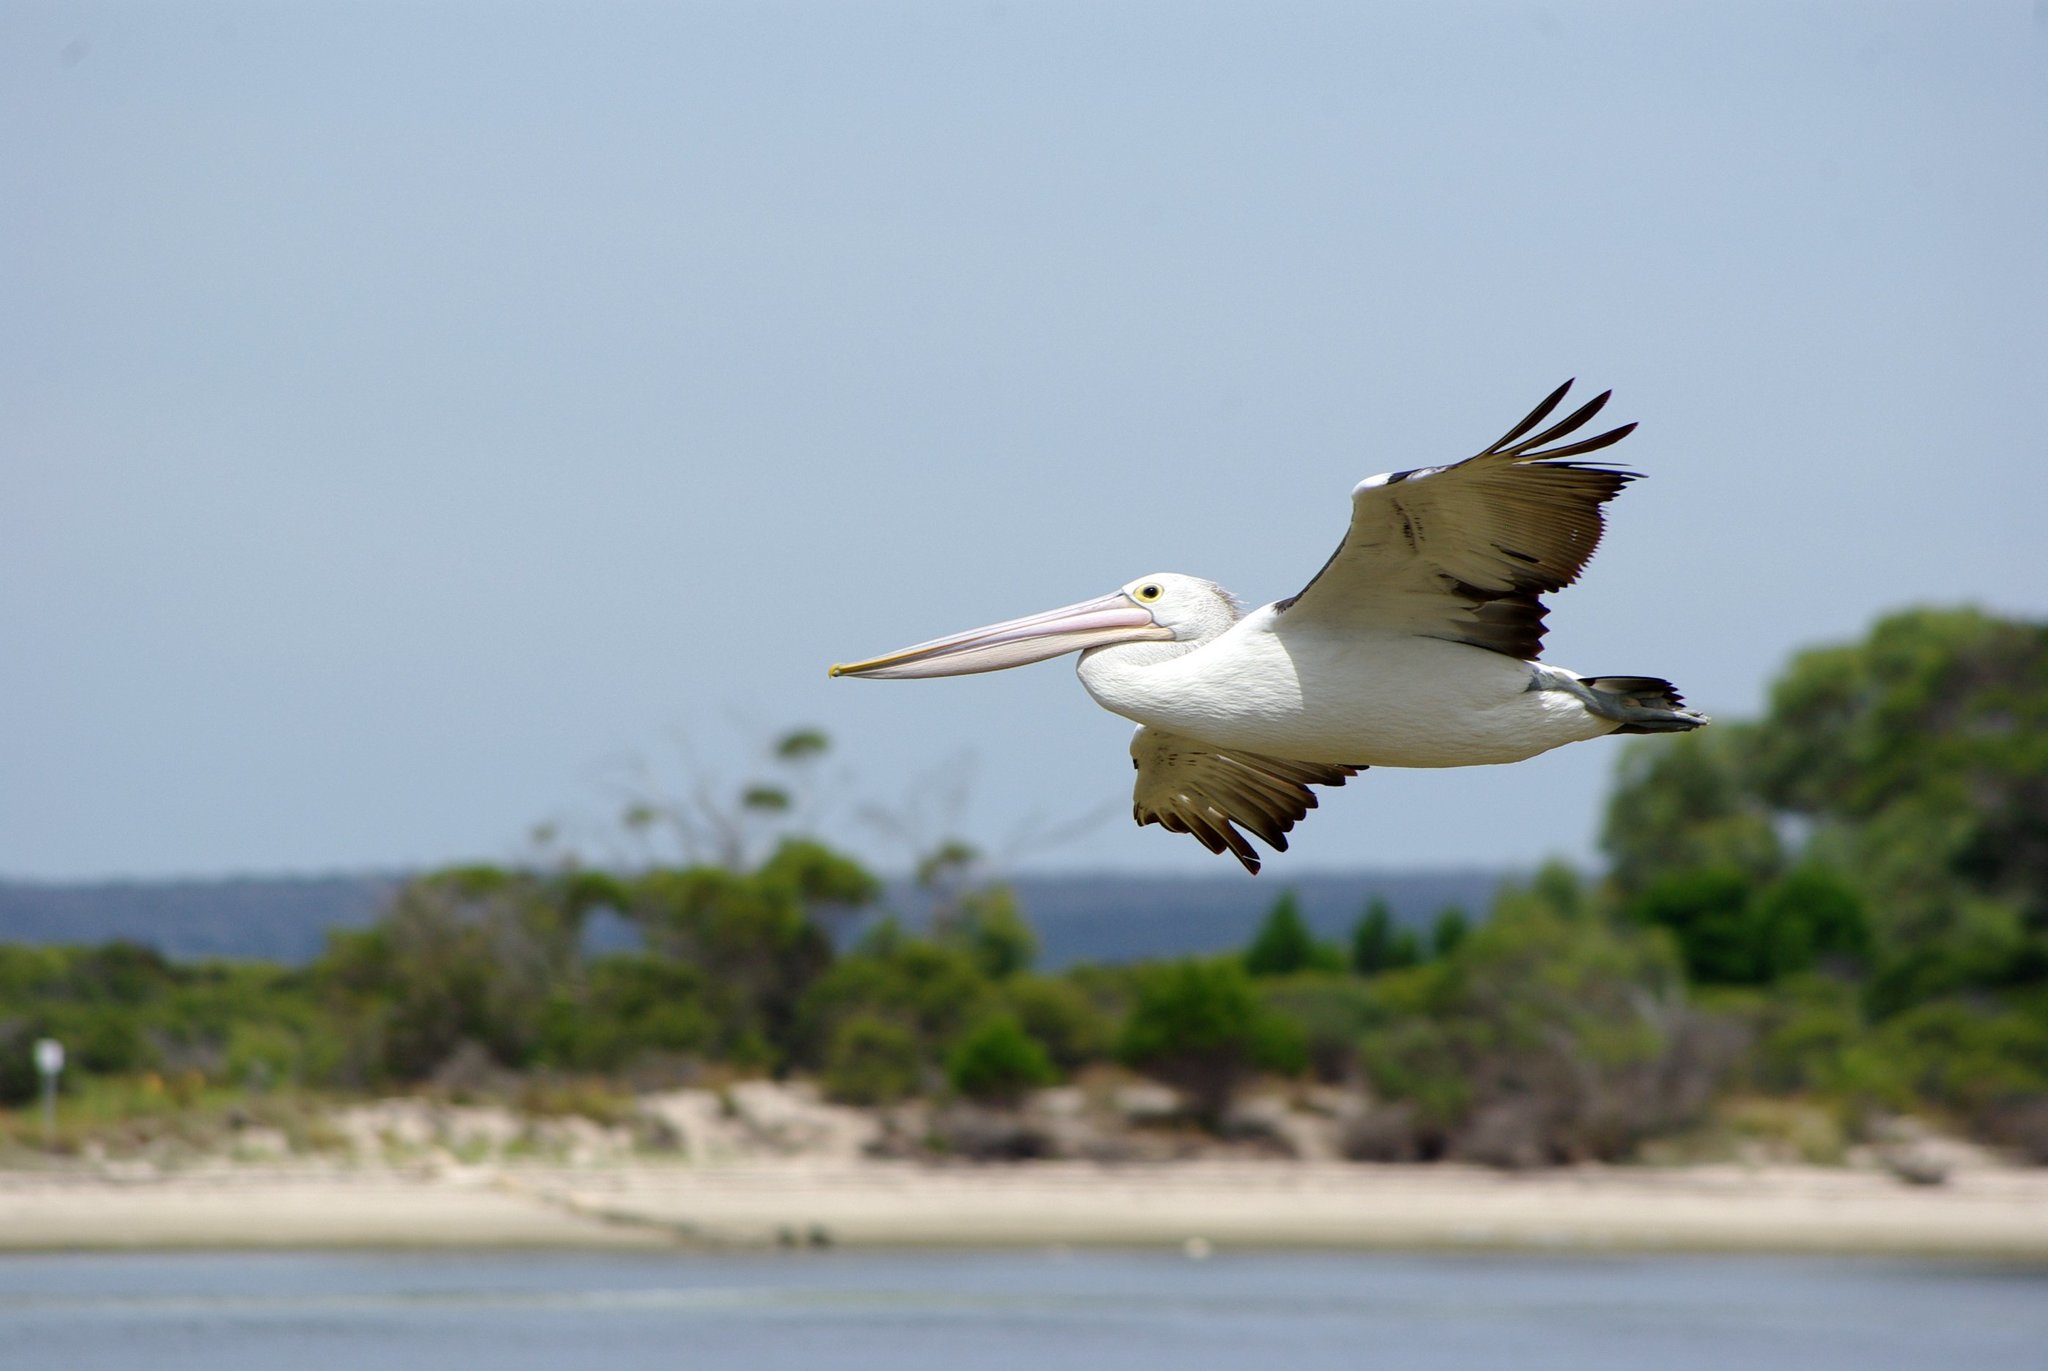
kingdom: Animalia
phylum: Chordata
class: Aves
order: Pelecaniformes
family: Pelecanidae
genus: Pelecanus
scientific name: Pelecanus conspicillatus
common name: Australian pelican
